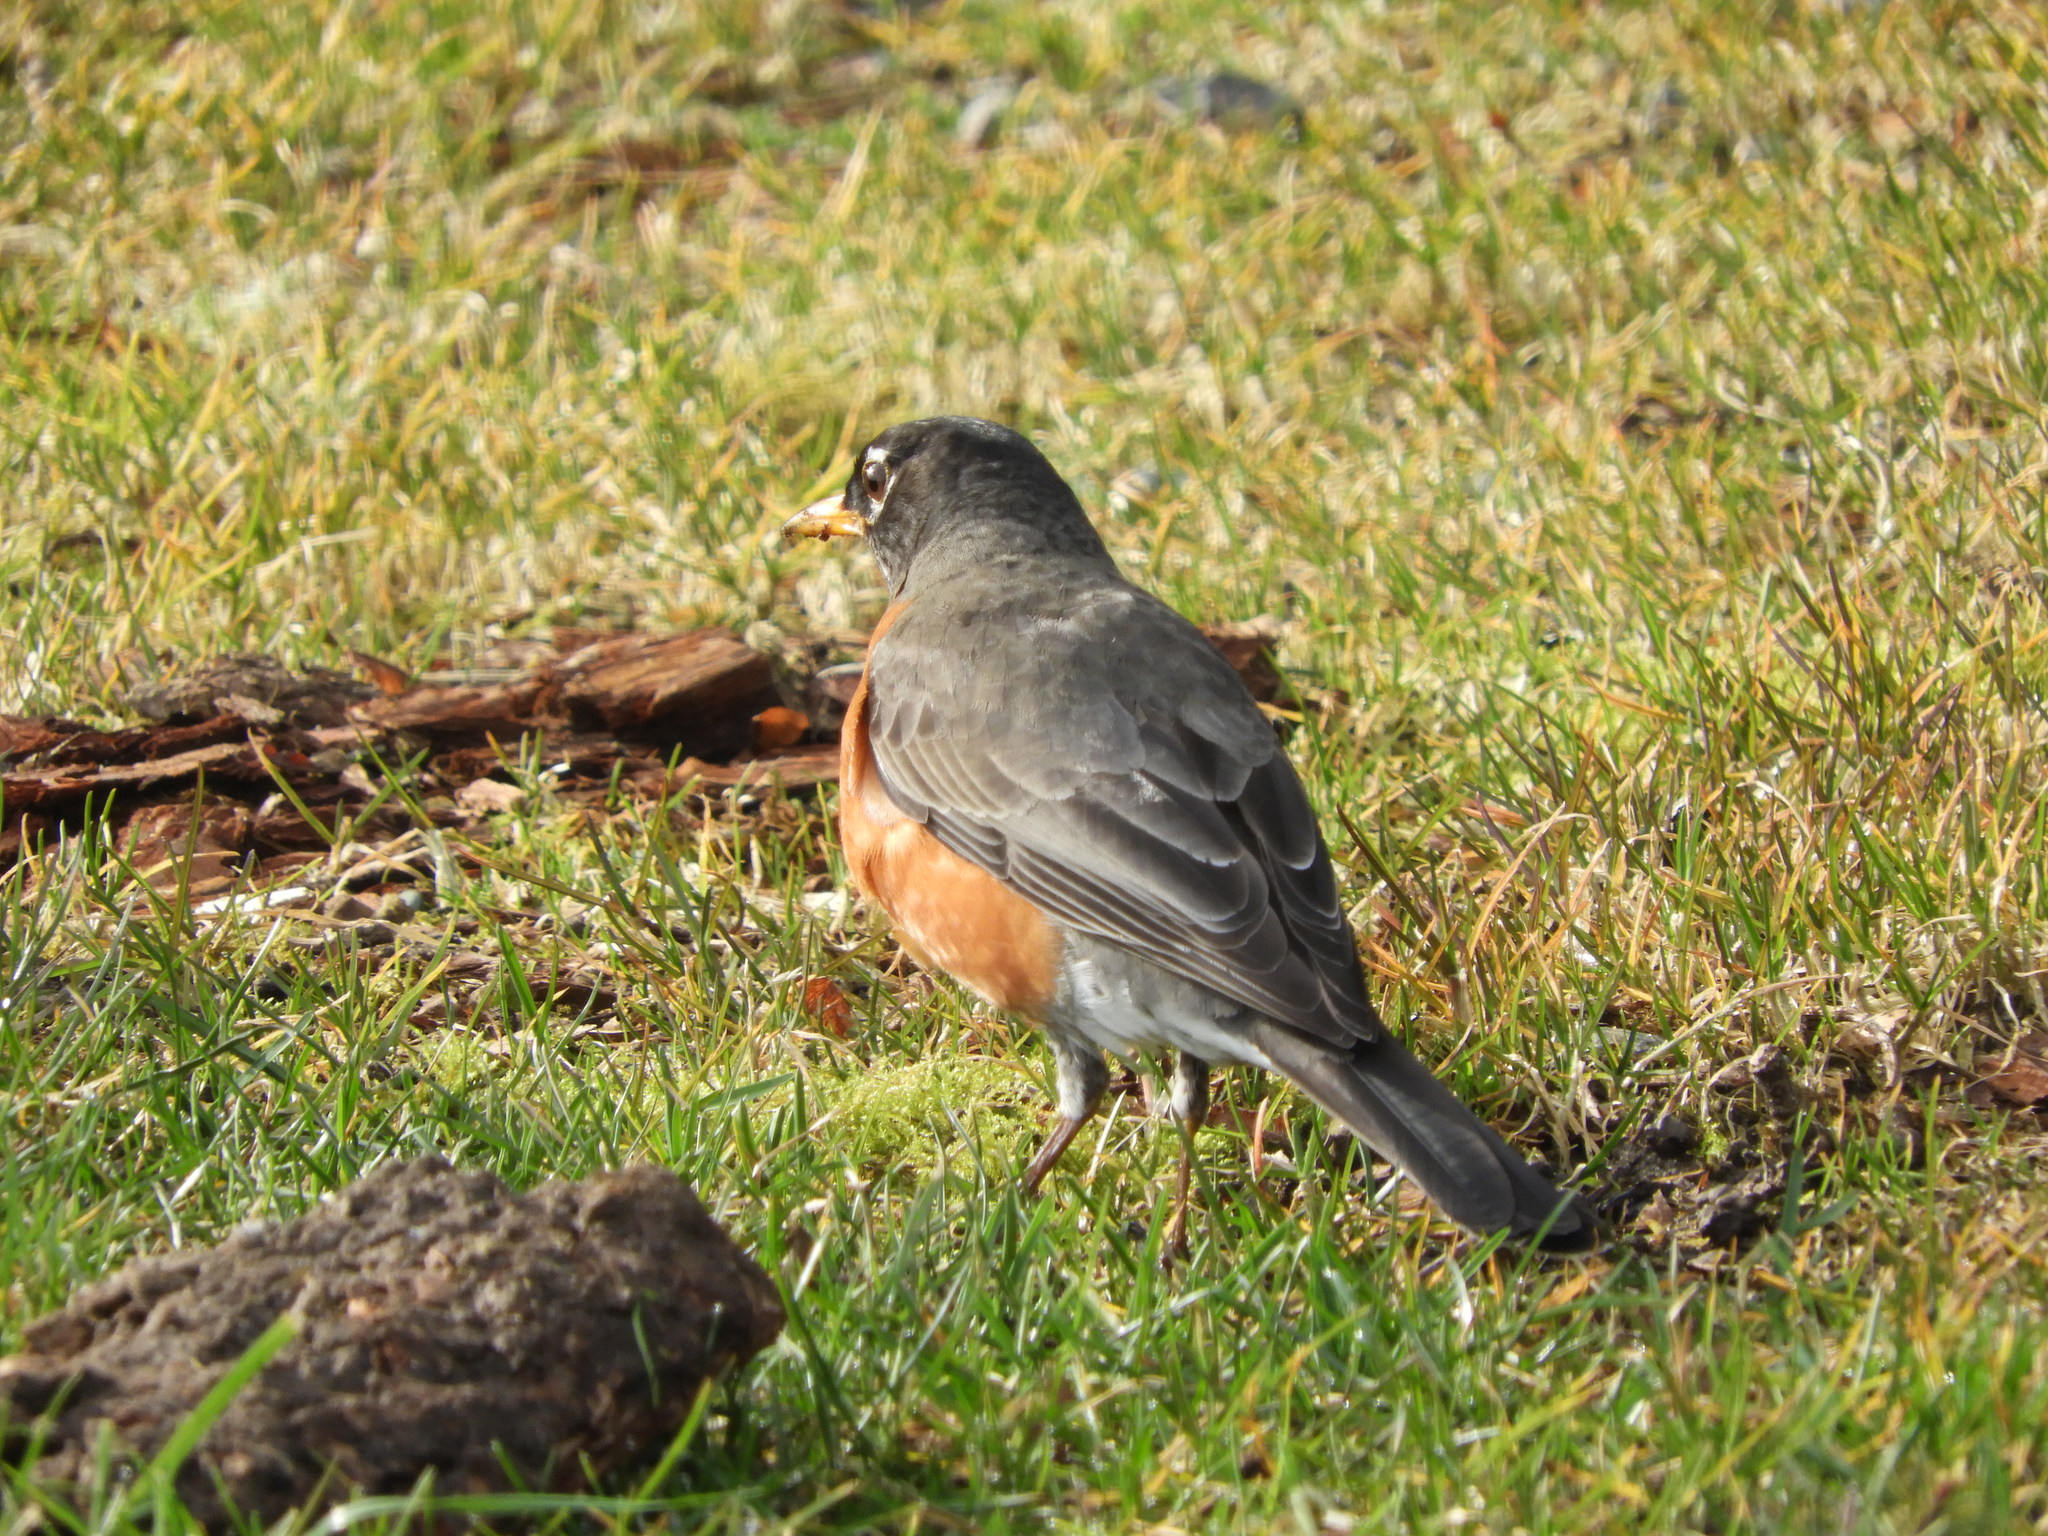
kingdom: Animalia
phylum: Chordata
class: Aves
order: Passeriformes
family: Turdidae
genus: Turdus
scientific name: Turdus migratorius
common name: American robin
